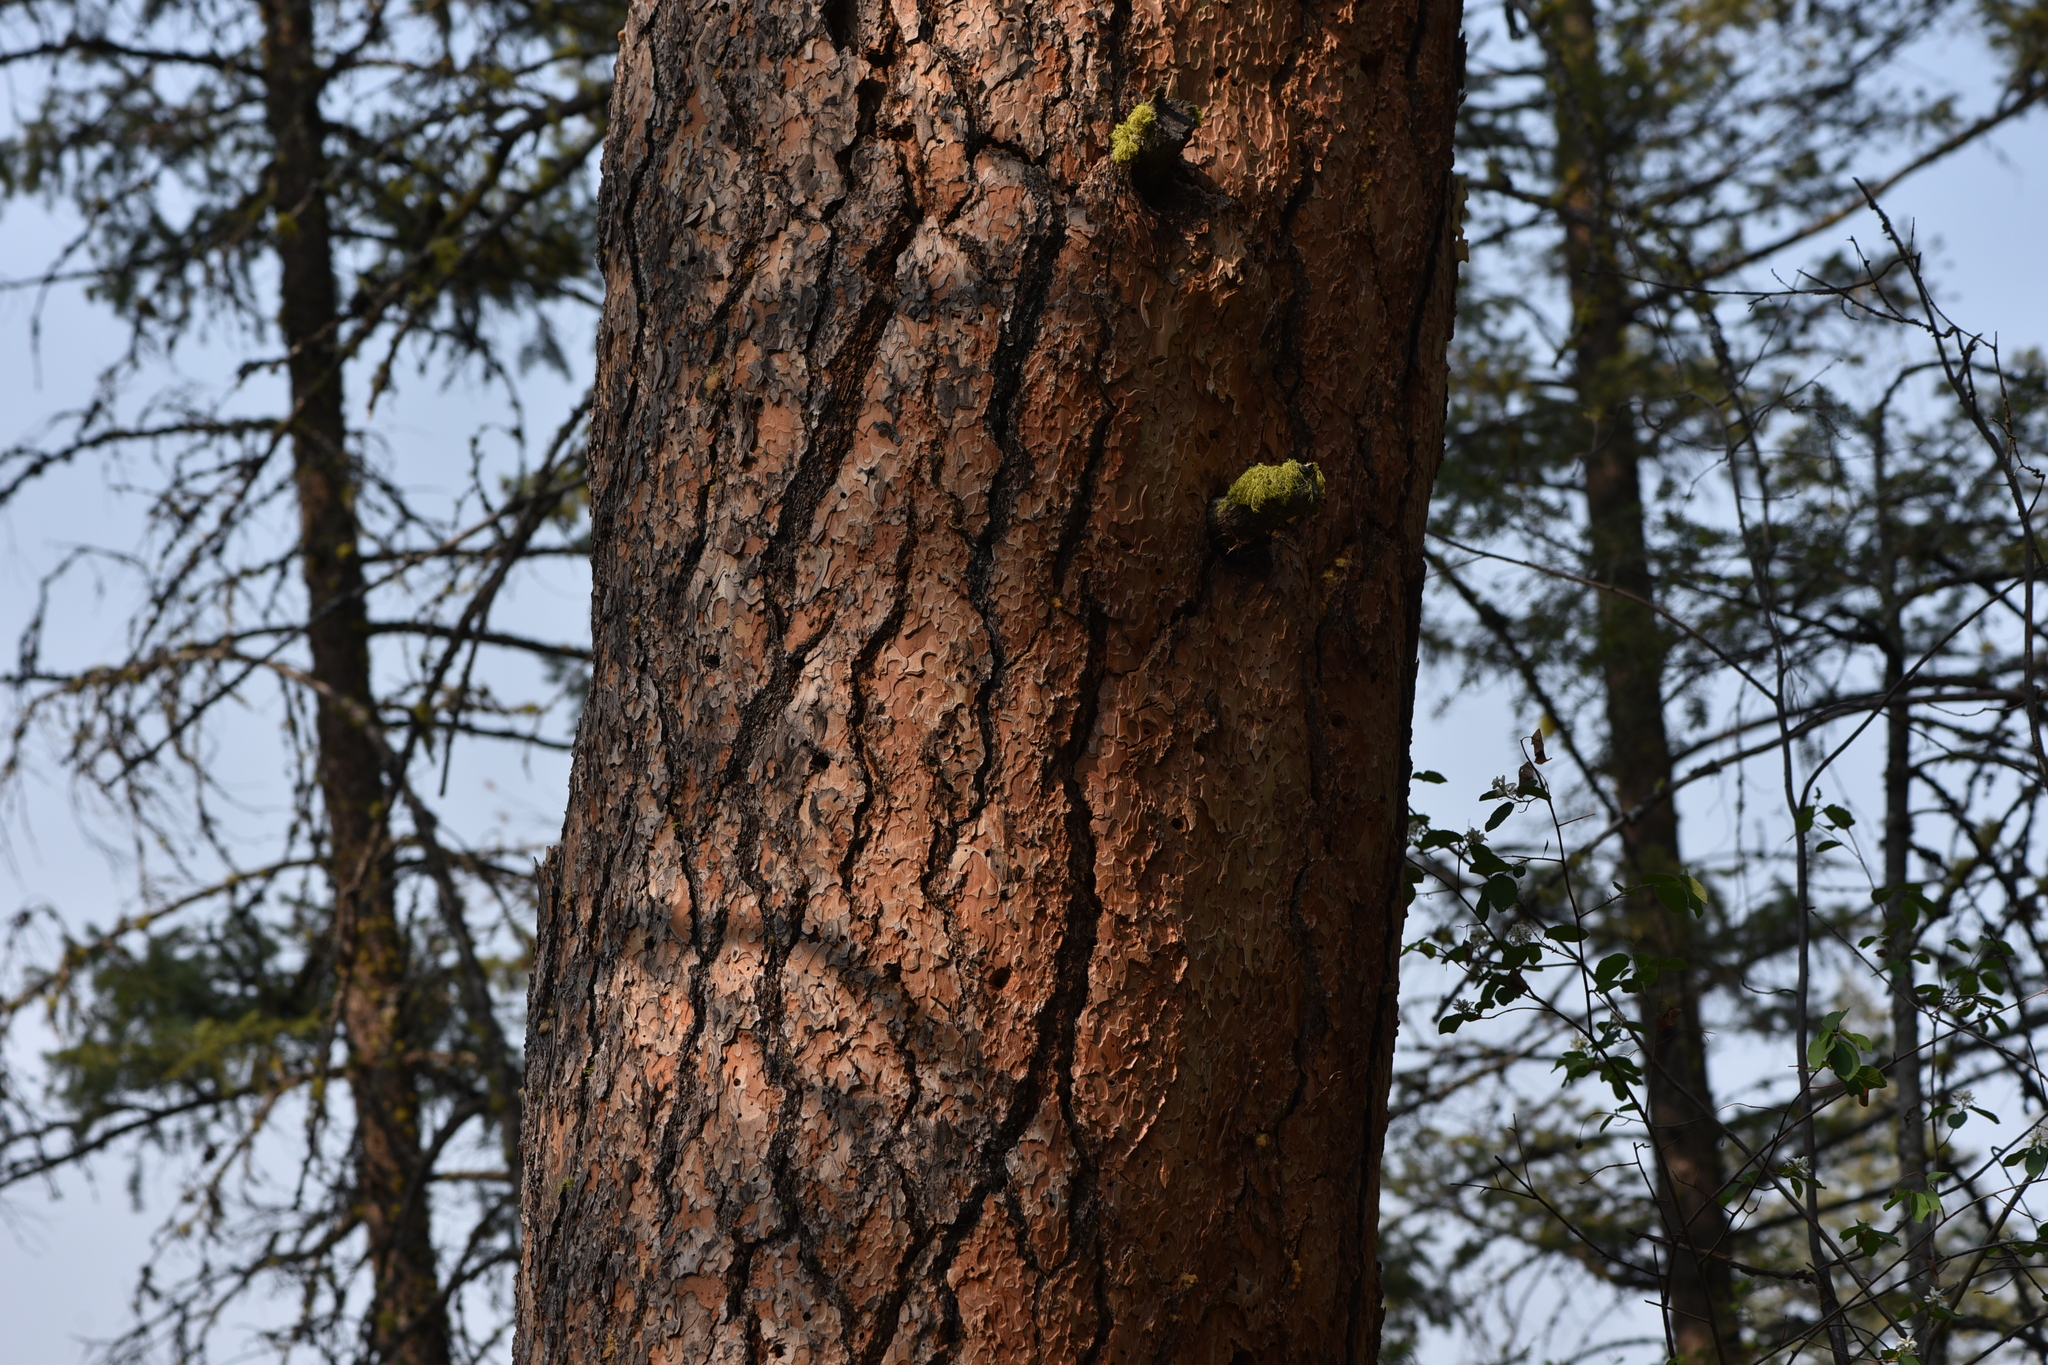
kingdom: Plantae
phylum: Tracheophyta
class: Pinopsida
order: Pinales
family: Pinaceae
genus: Pinus
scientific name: Pinus ponderosa
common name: Western yellow-pine
